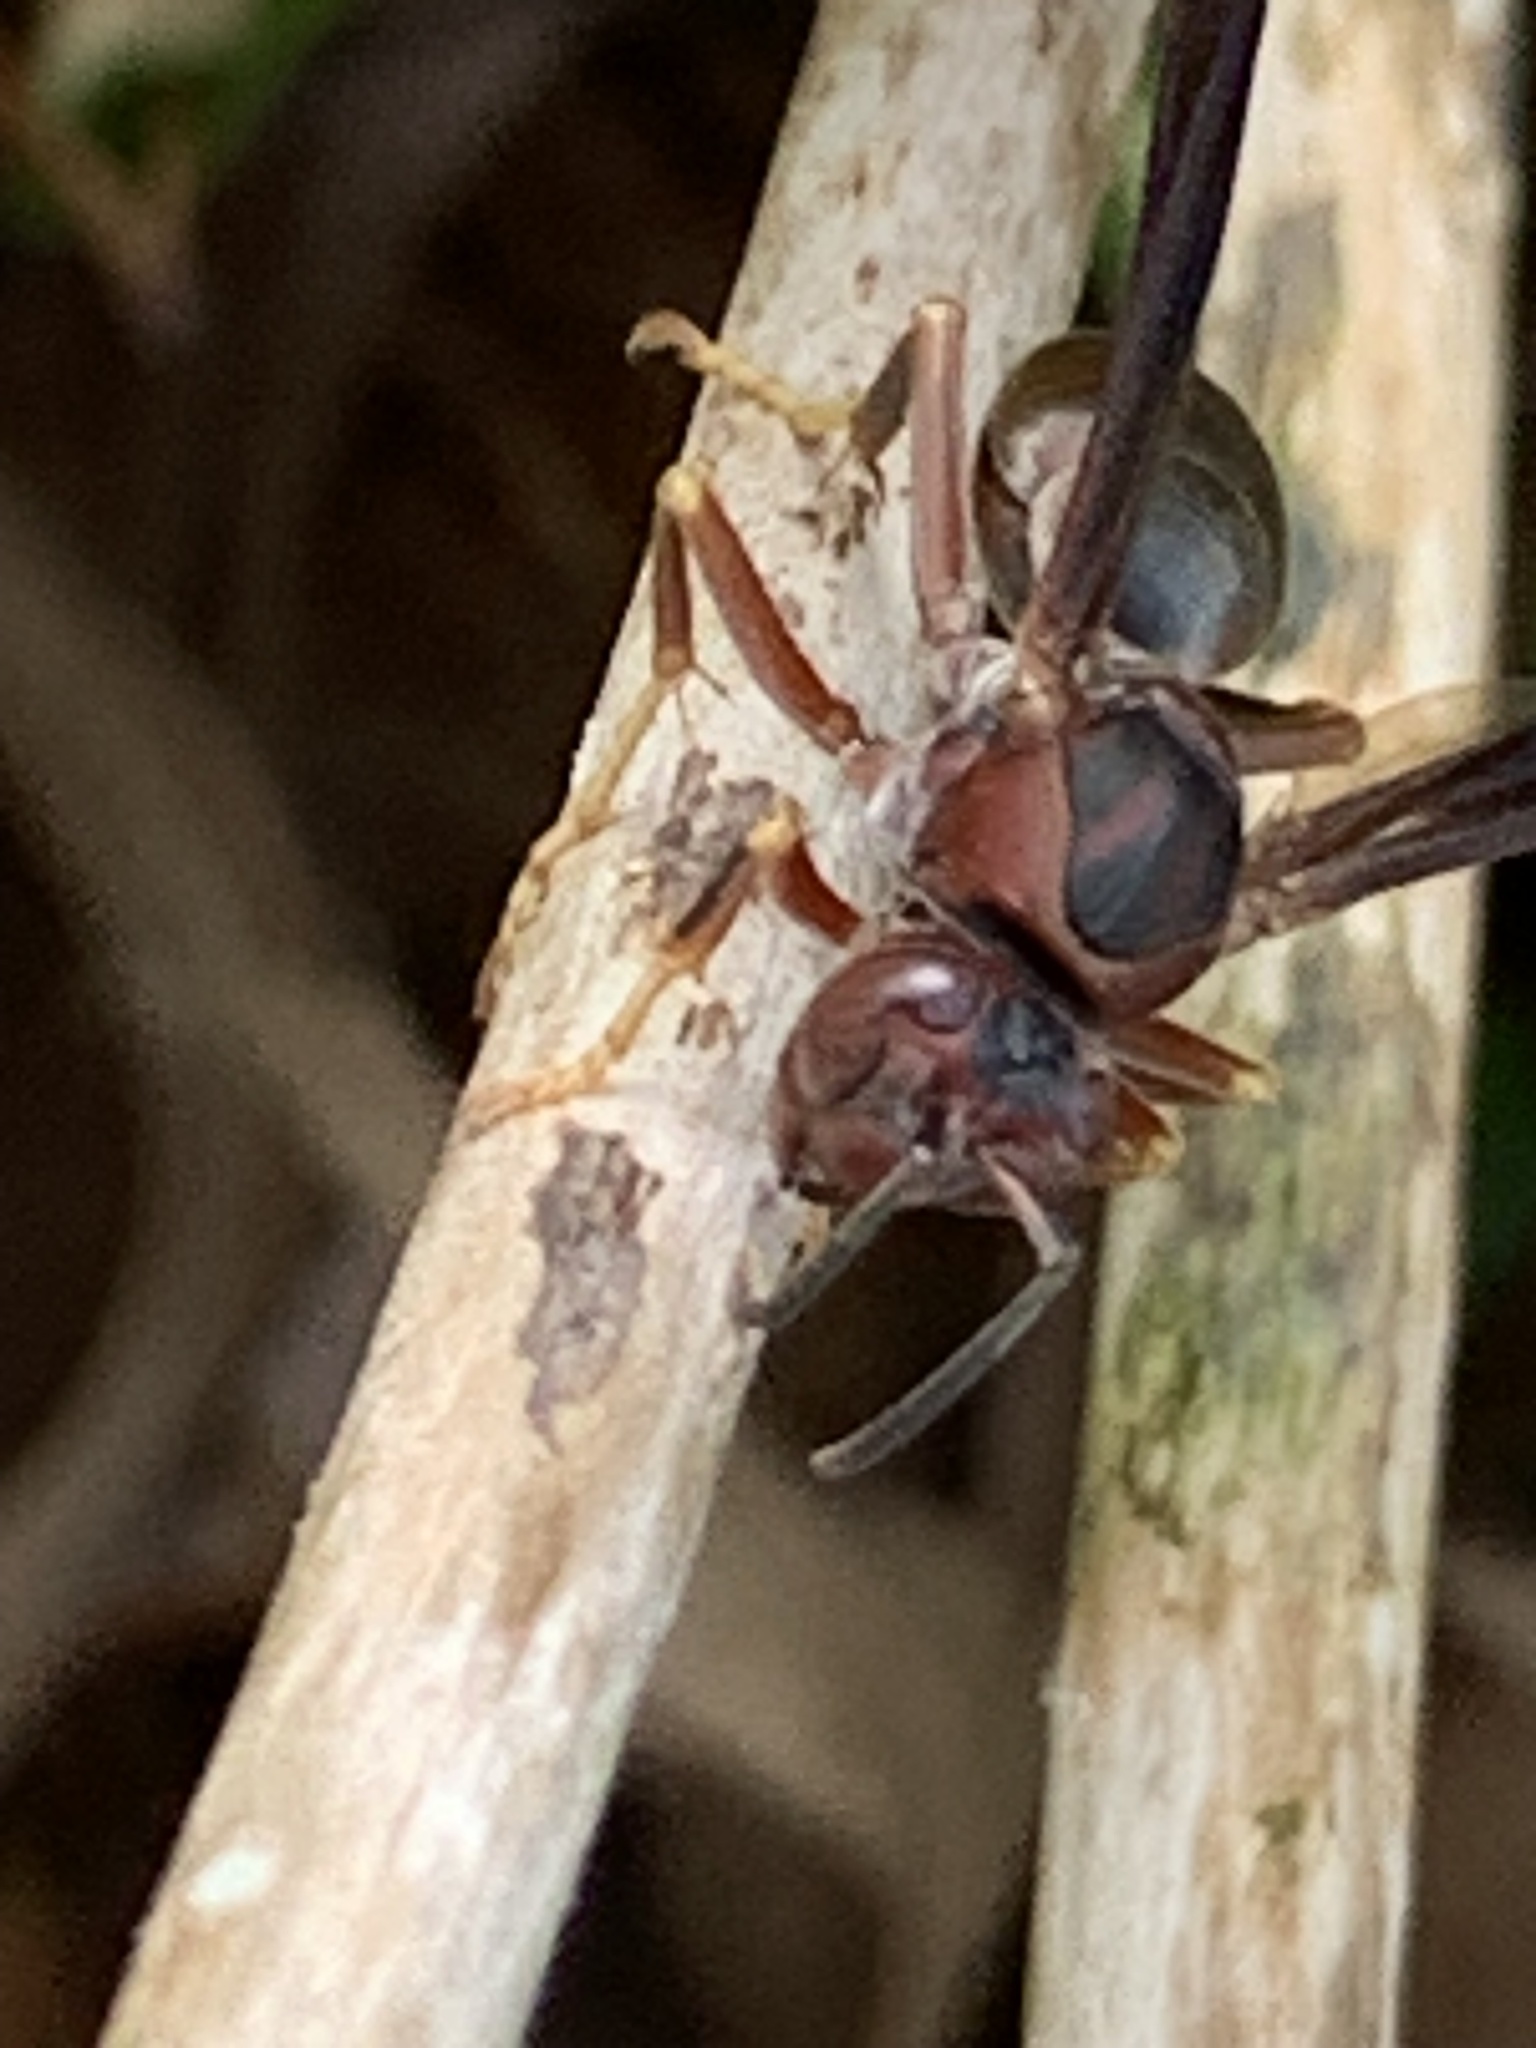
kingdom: Animalia
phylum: Arthropoda
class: Insecta
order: Hymenoptera
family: Eumenidae
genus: Polistes
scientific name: Polistes metricus
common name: Metric paper wasp
